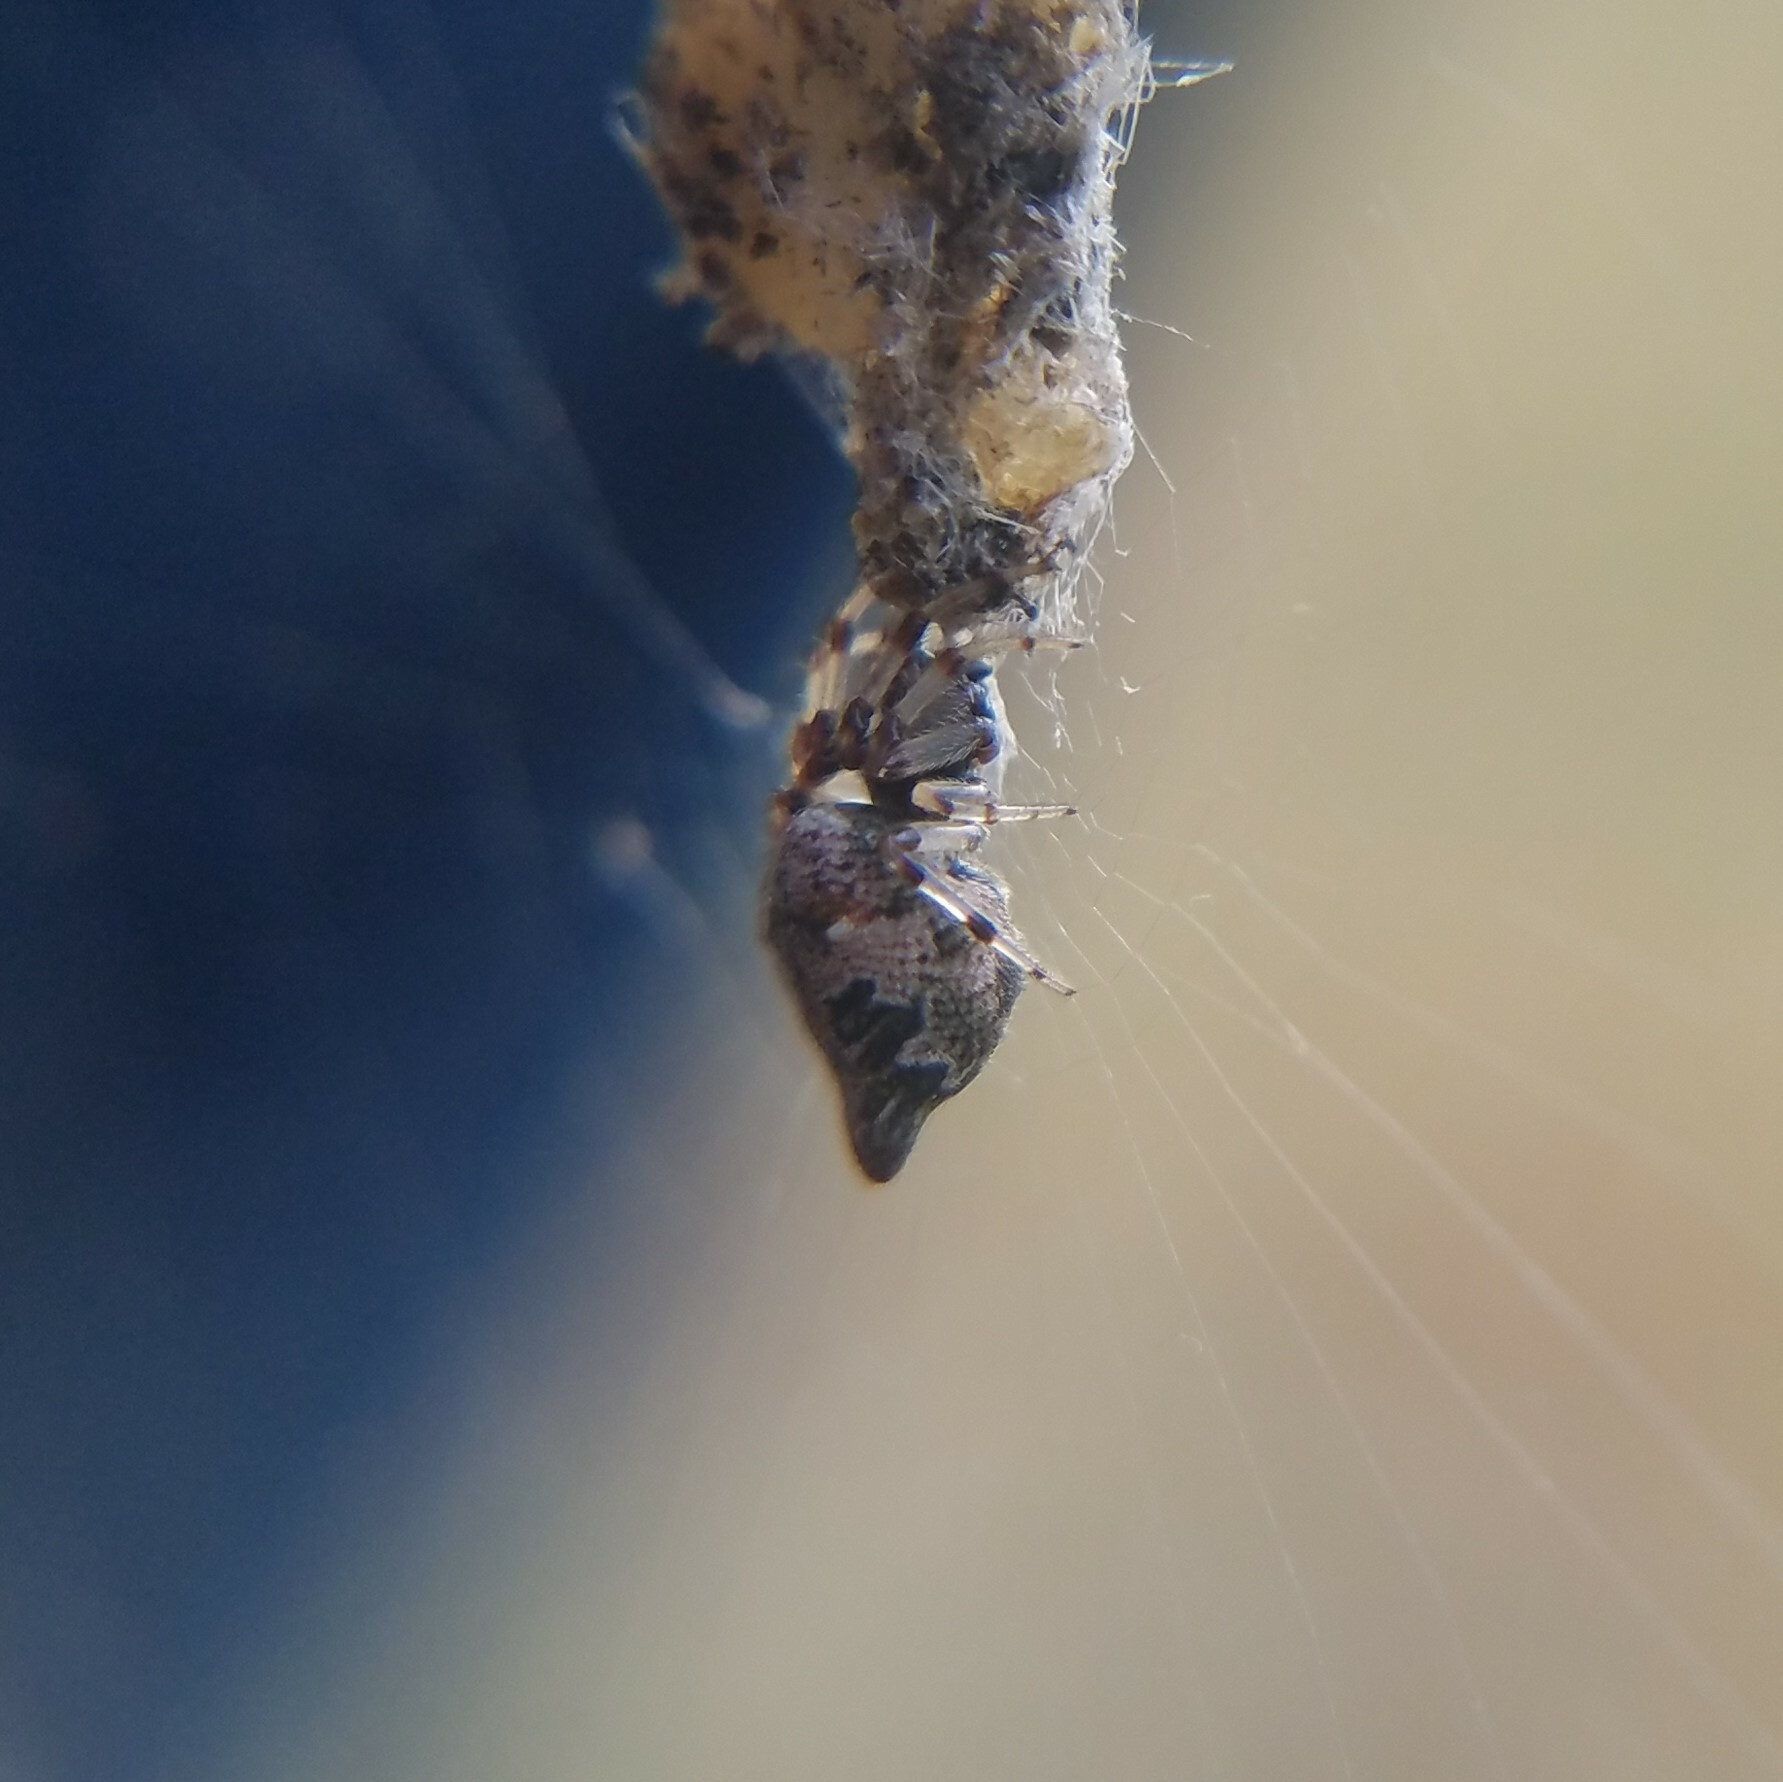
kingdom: Animalia
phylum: Arthropoda
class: Arachnida
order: Araneae
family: Araneidae
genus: Cyclosa
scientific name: Cyclosa turbinata
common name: Orb weavers
